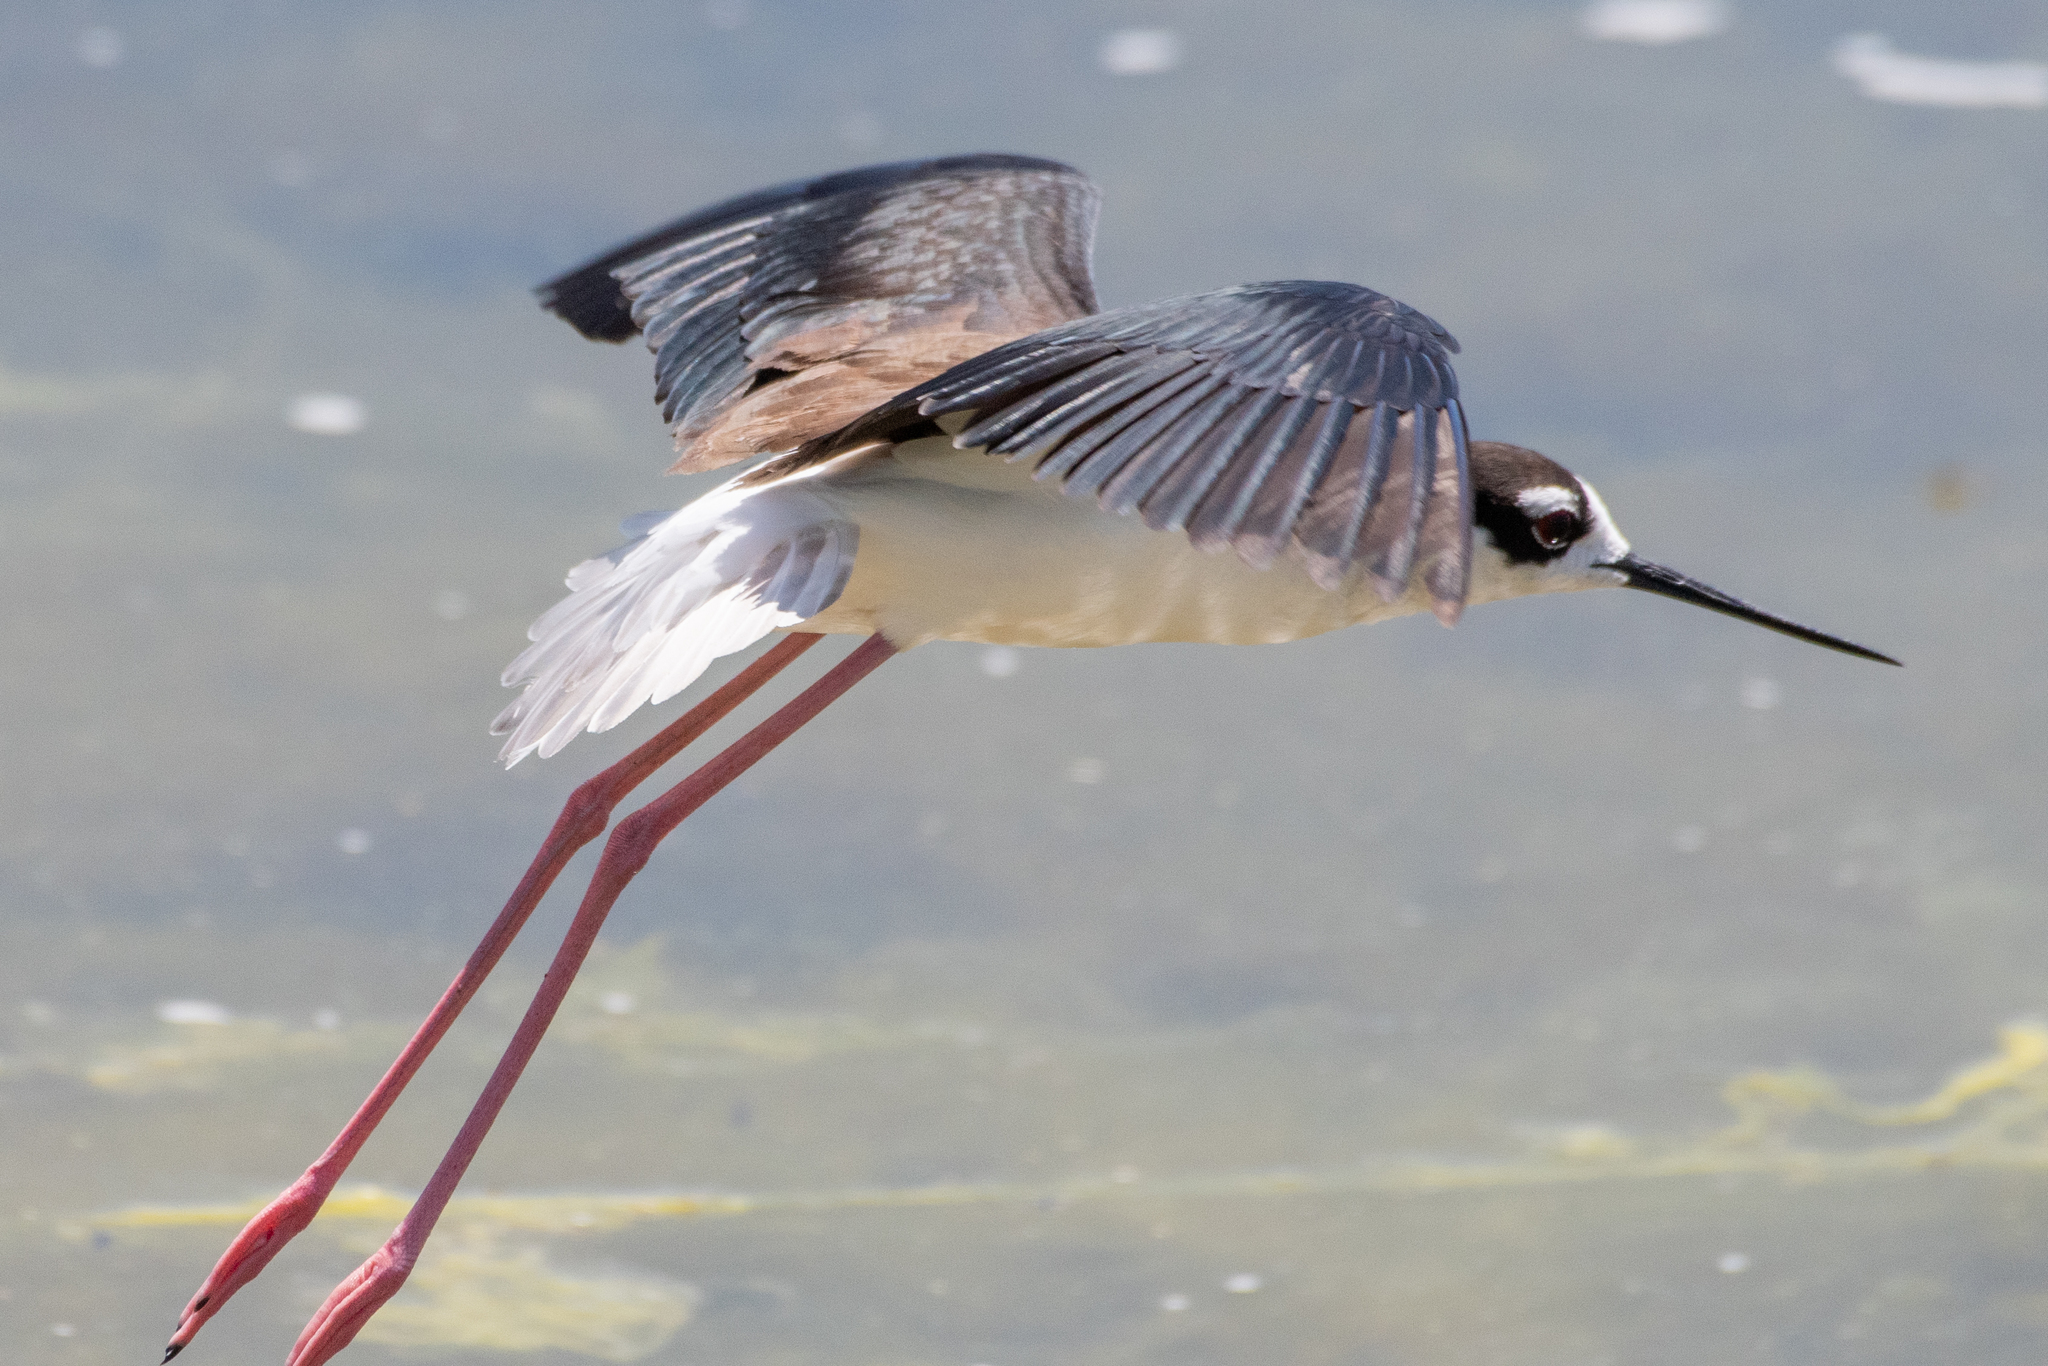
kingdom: Animalia
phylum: Chordata
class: Aves
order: Charadriiformes
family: Recurvirostridae
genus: Himantopus
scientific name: Himantopus mexicanus
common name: Black-necked stilt
